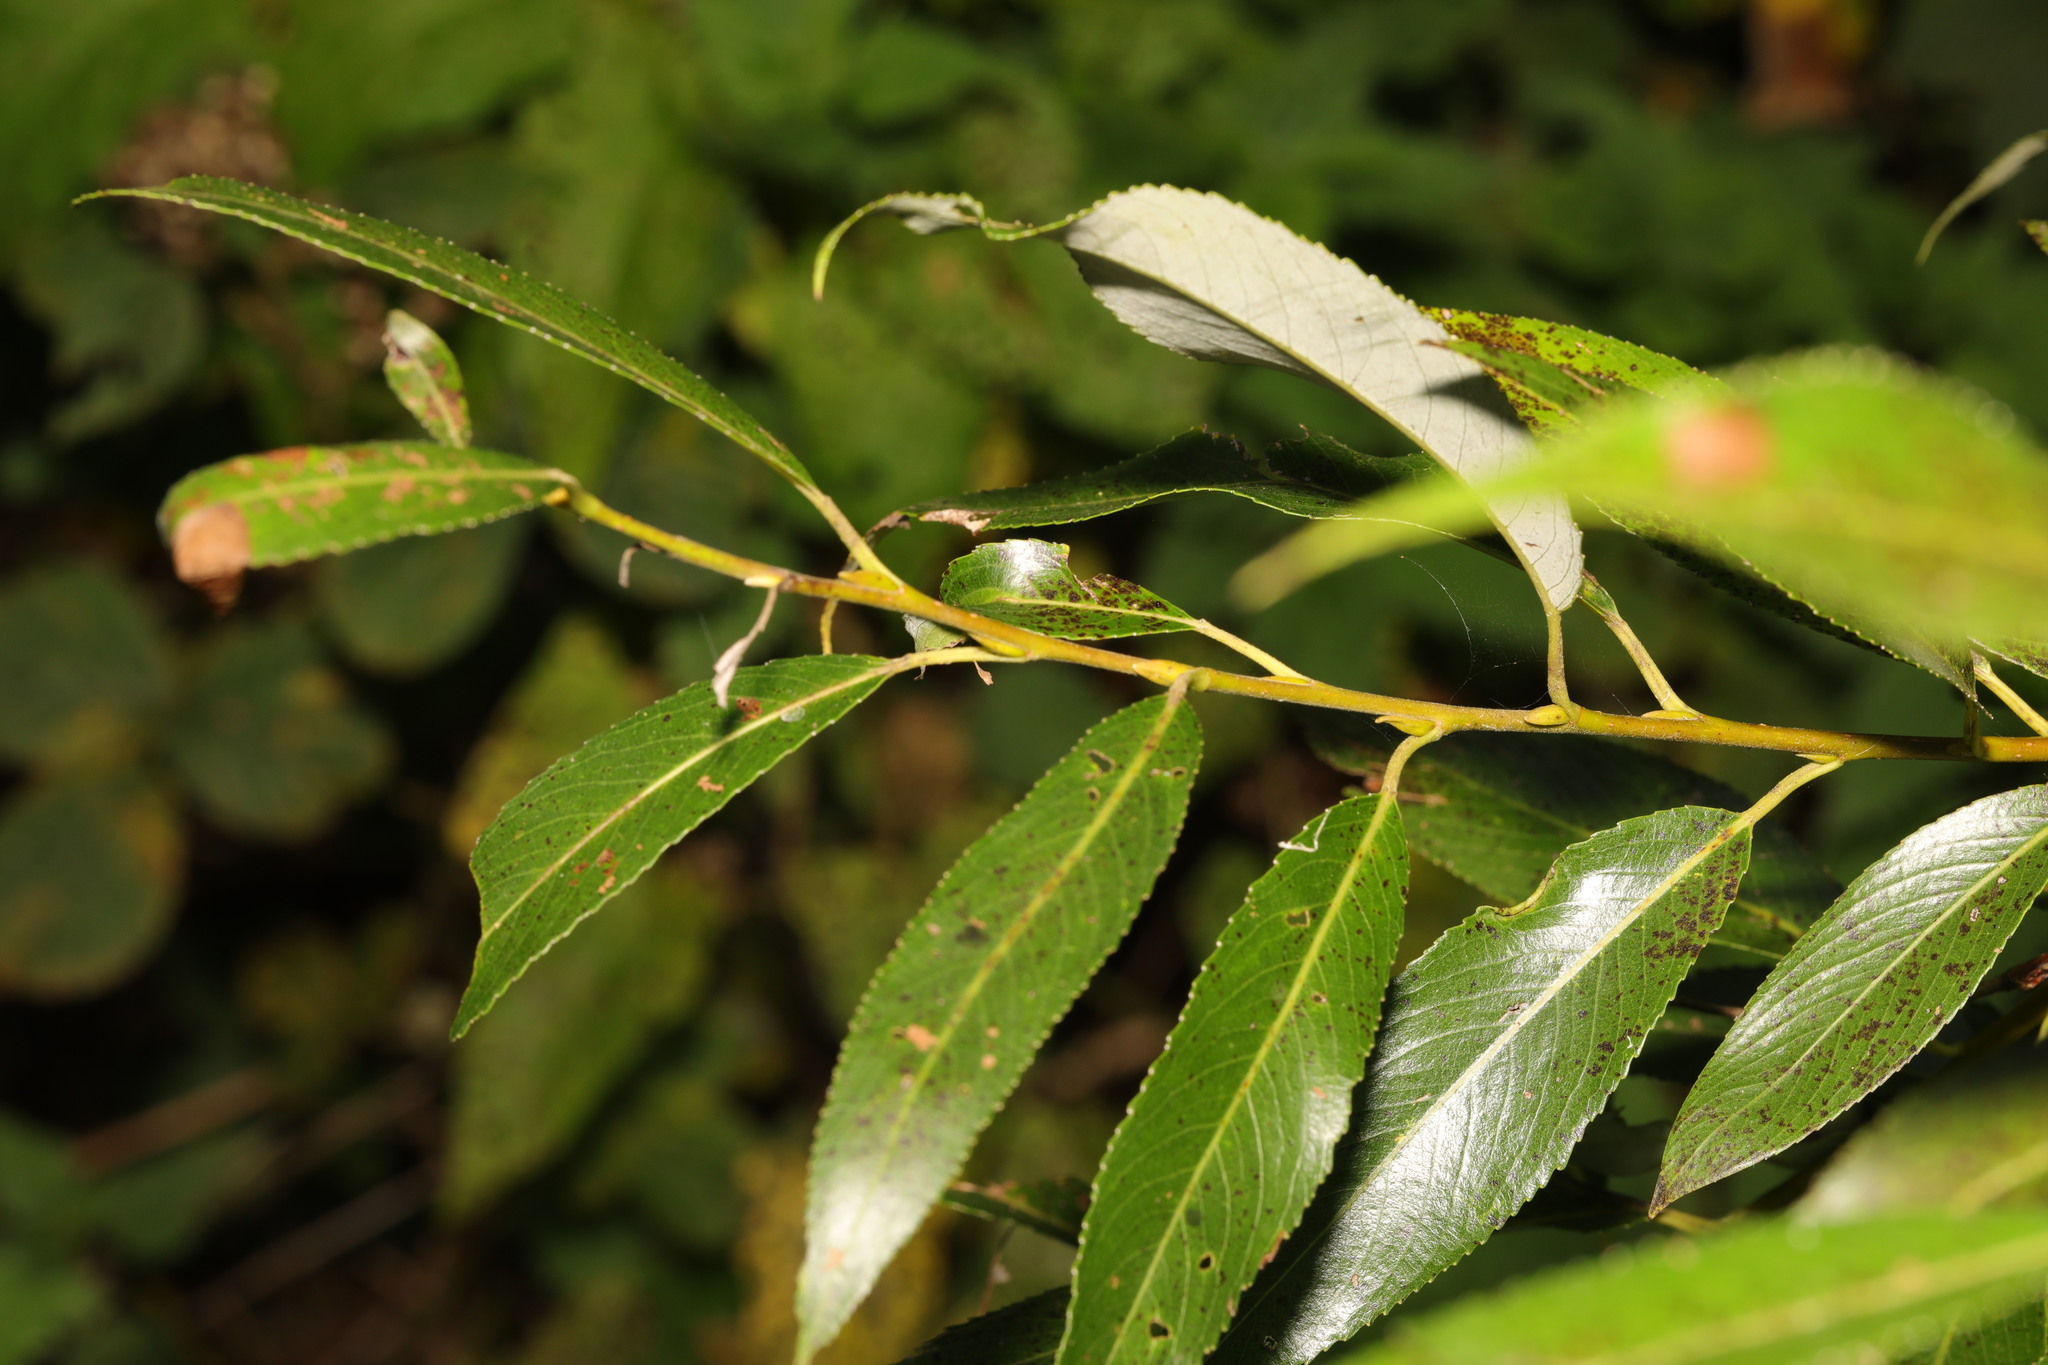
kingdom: Plantae
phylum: Tracheophyta
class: Magnoliopsida
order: Malpighiales
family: Salicaceae
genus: Salix
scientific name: Salix fragilis
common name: Crack willow
